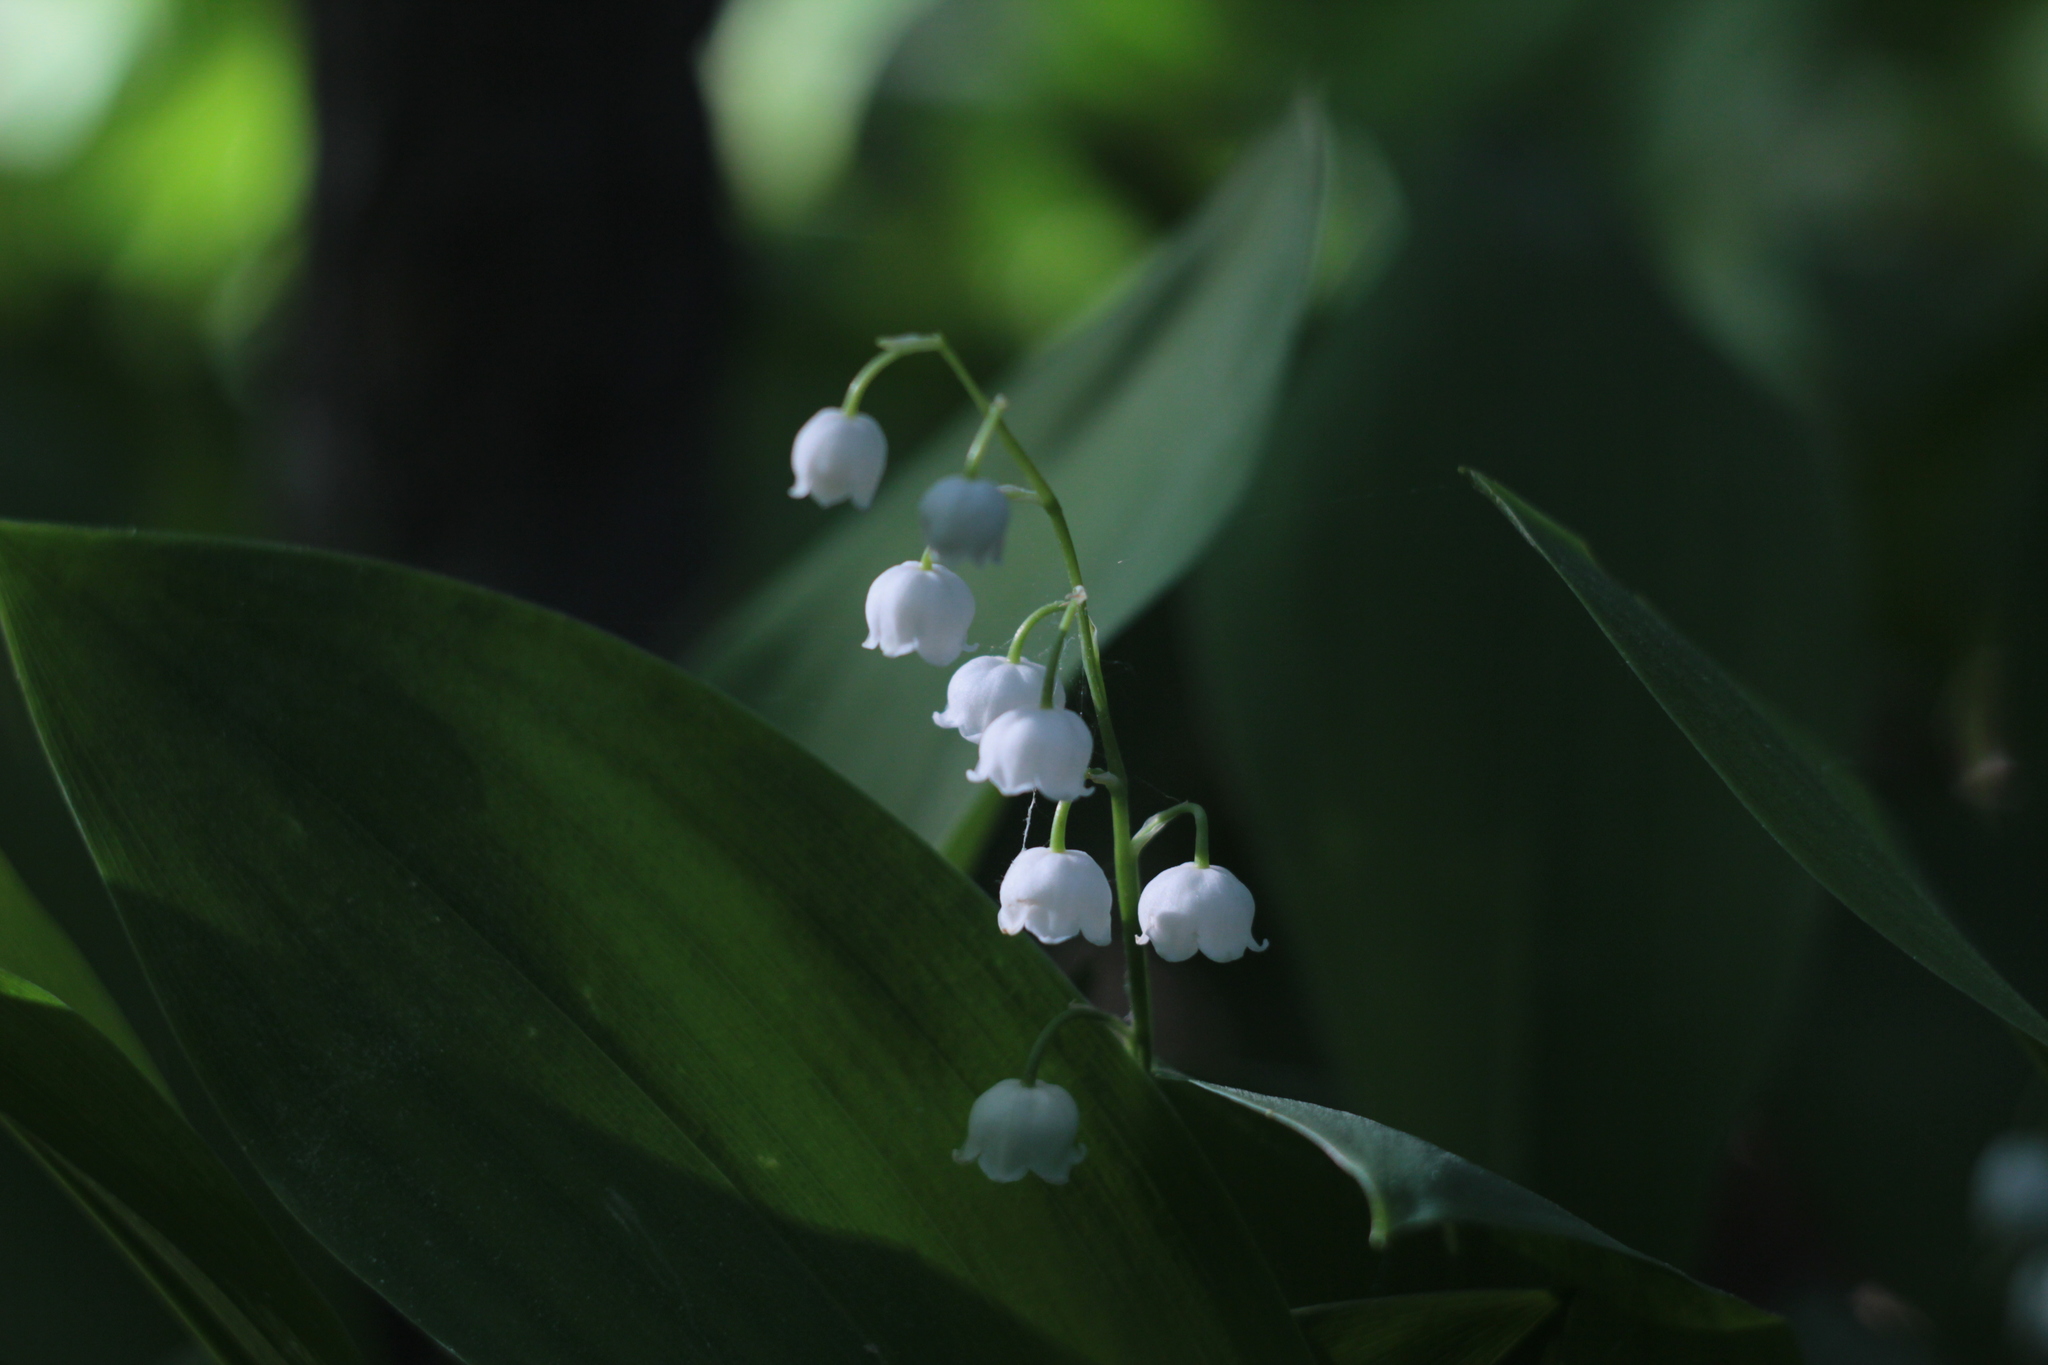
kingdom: Plantae
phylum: Tracheophyta
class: Liliopsida
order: Asparagales
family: Asparagaceae
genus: Convallaria
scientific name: Convallaria majalis
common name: Lily-of-the-valley
